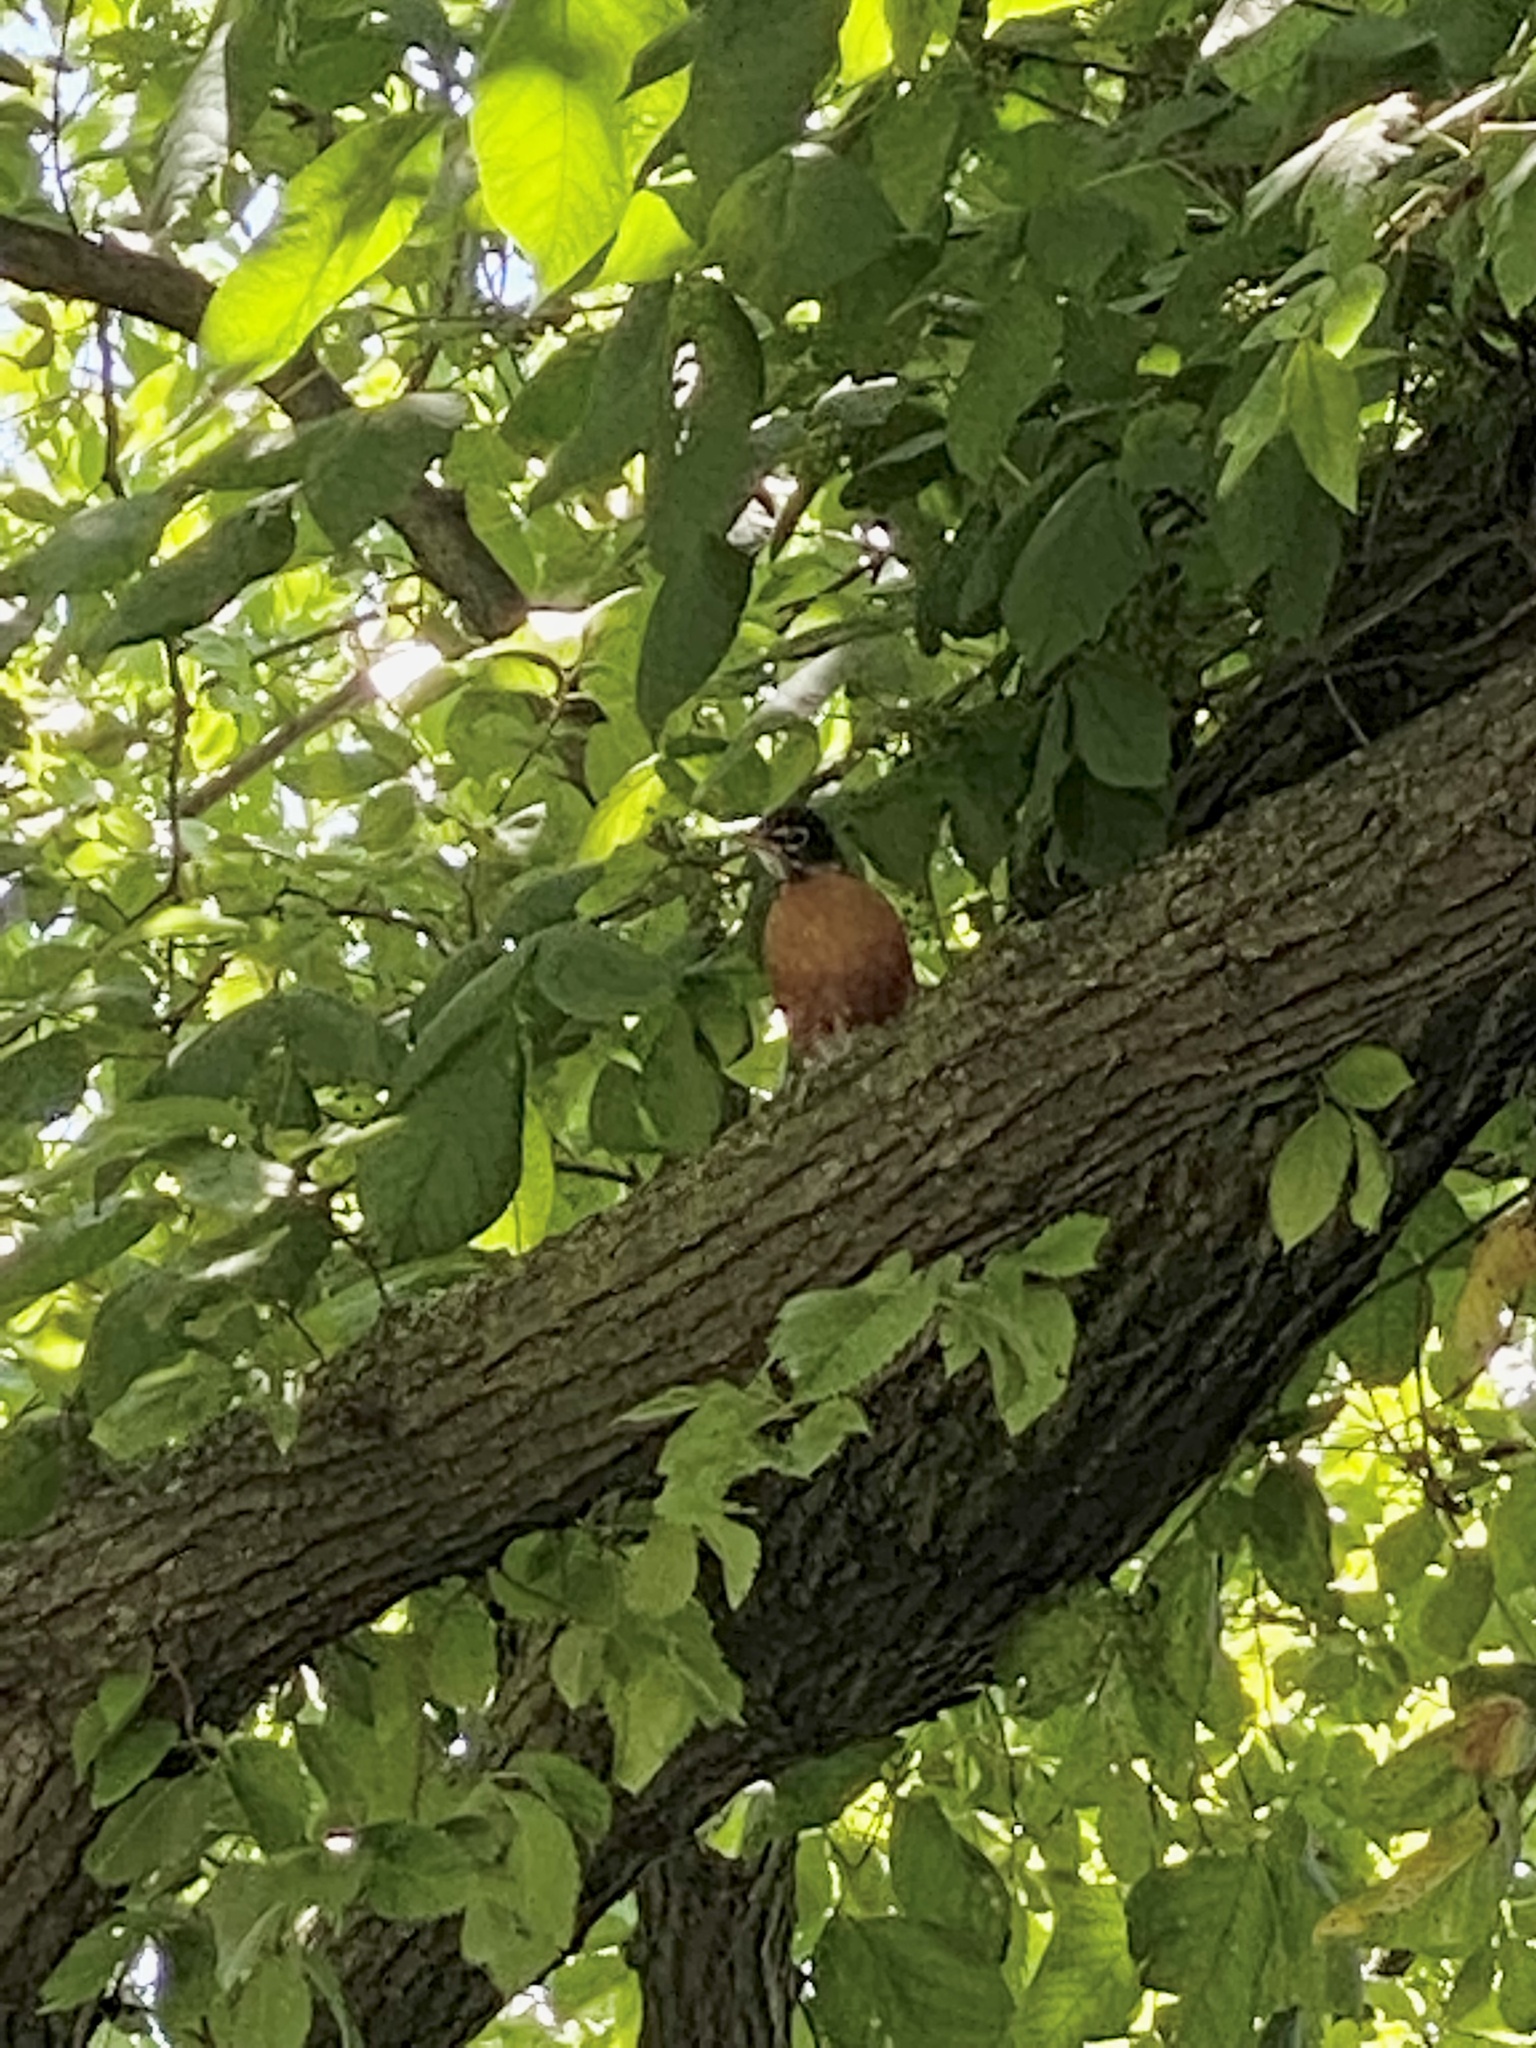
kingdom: Animalia
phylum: Chordata
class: Aves
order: Passeriformes
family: Turdidae
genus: Turdus
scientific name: Turdus migratorius
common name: American robin
